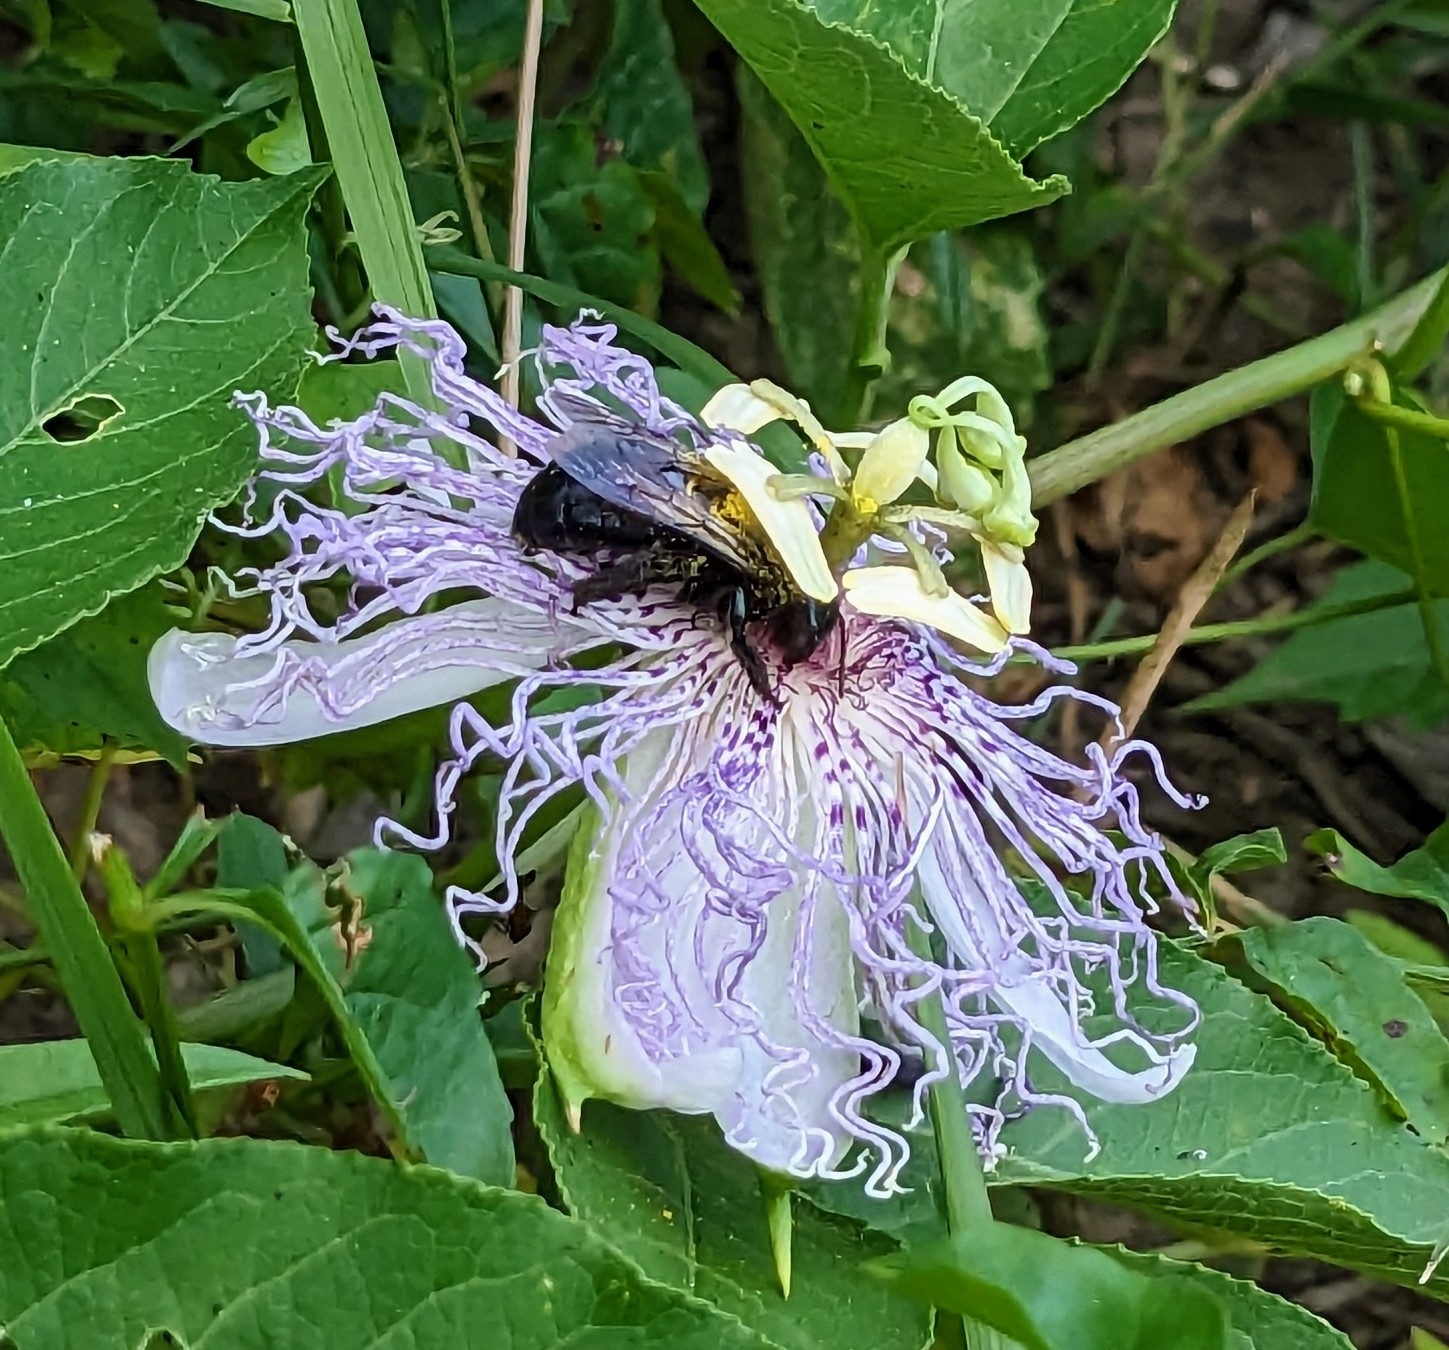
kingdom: Animalia
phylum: Arthropoda
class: Insecta
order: Hymenoptera
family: Apidae
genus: Xylocopa
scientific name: Xylocopa virginica
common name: Carpenter bee
